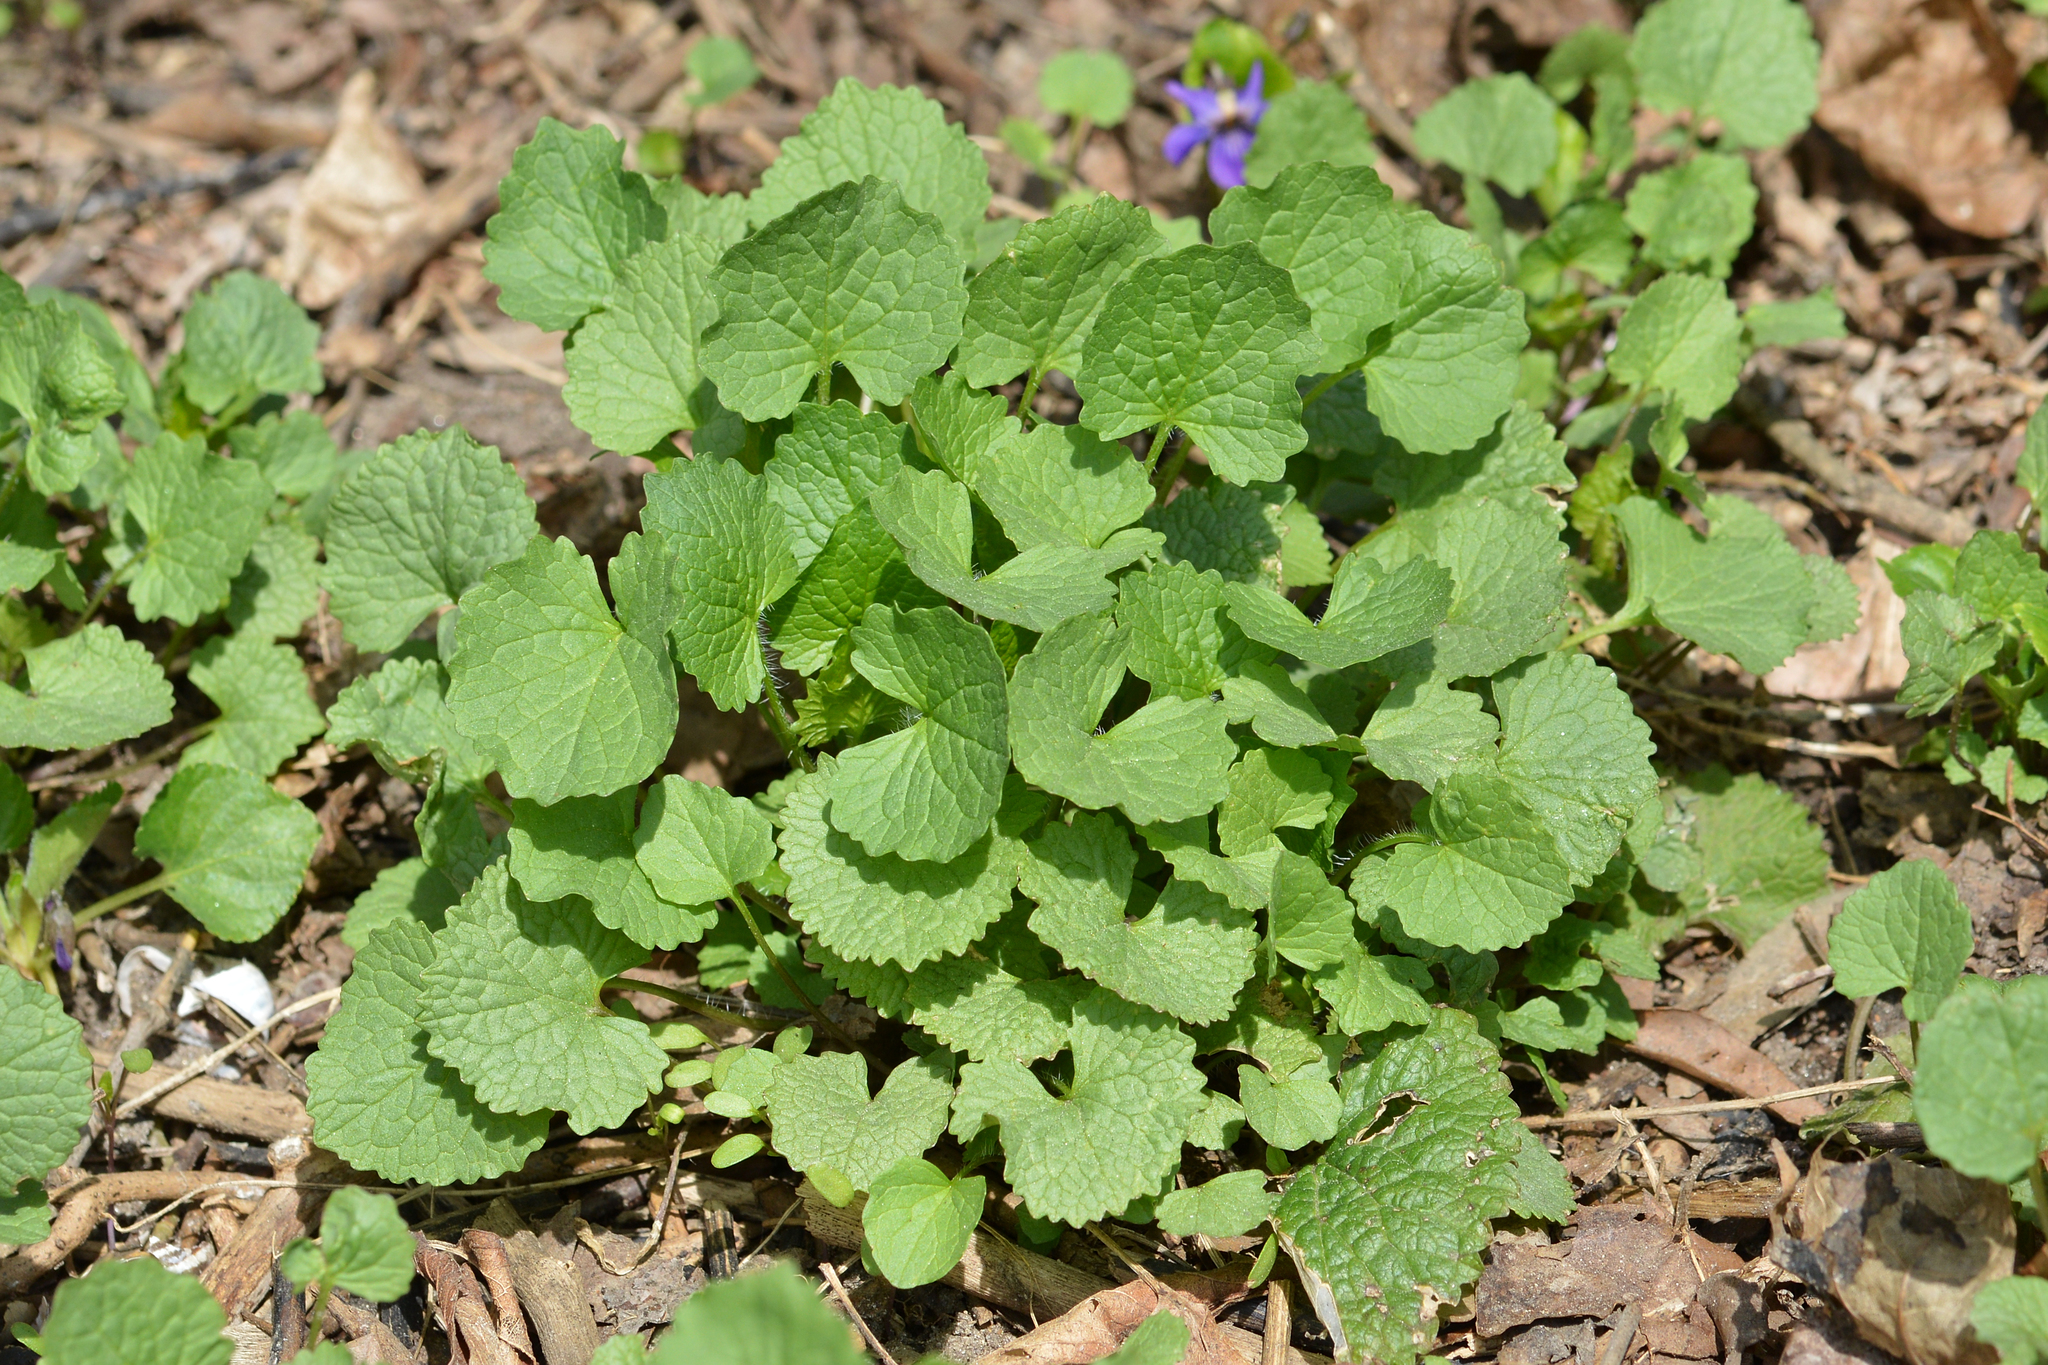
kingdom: Plantae
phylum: Tracheophyta
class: Magnoliopsida
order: Brassicales
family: Brassicaceae
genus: Alliaria
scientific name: Alliaria petiolata
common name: Garlic mustard
